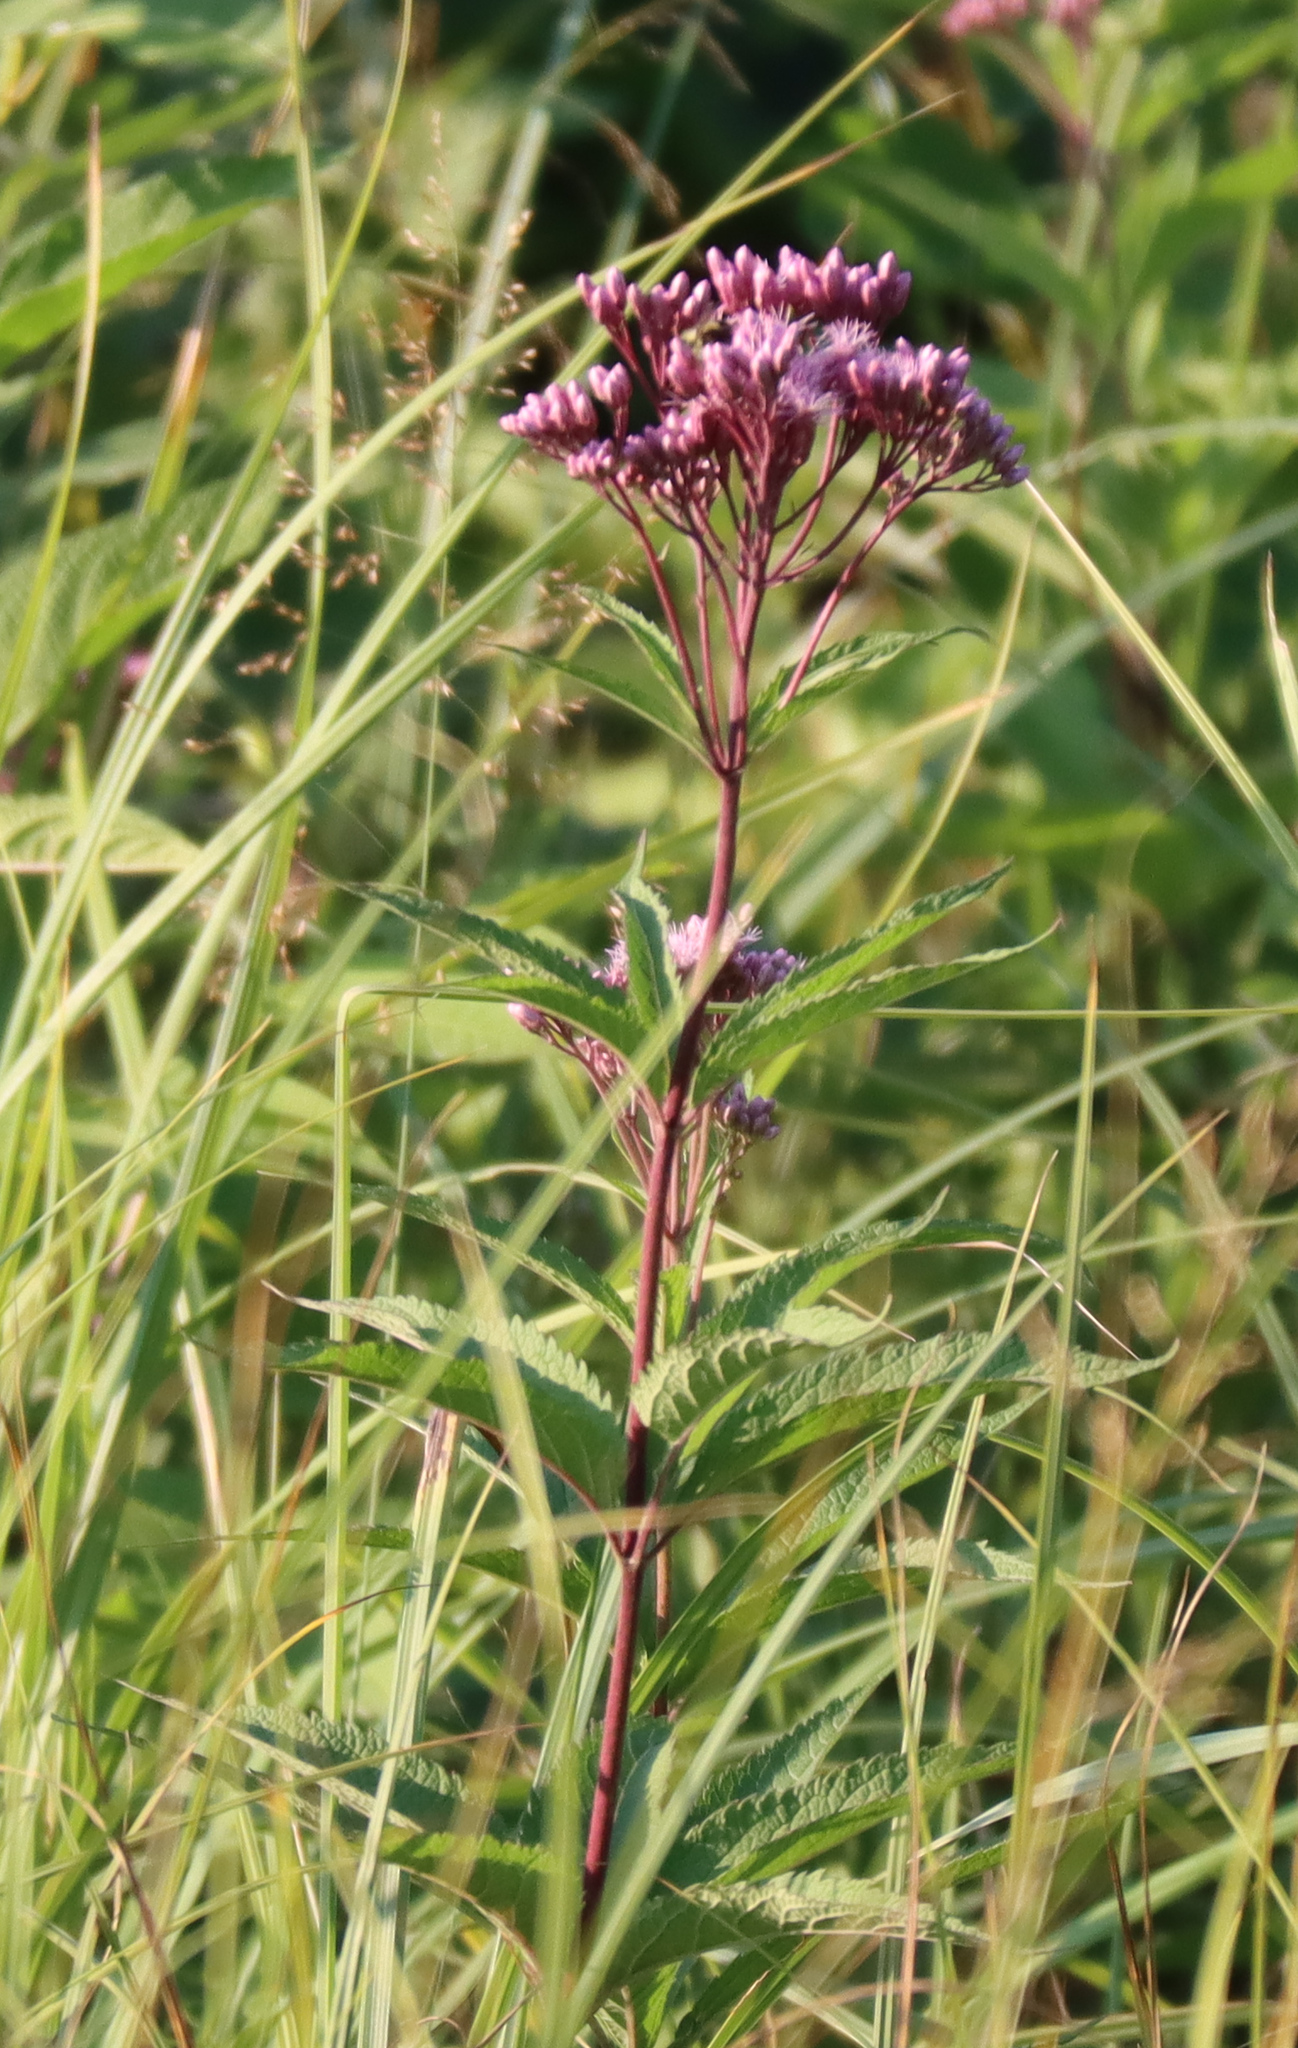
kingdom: Plantae
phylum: Tracheophyta
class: Magnoliopsida
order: Asterales
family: Asteraceae
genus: Eutrochium
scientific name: Eutrochium maculatum
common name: Spotted joe pye weed
